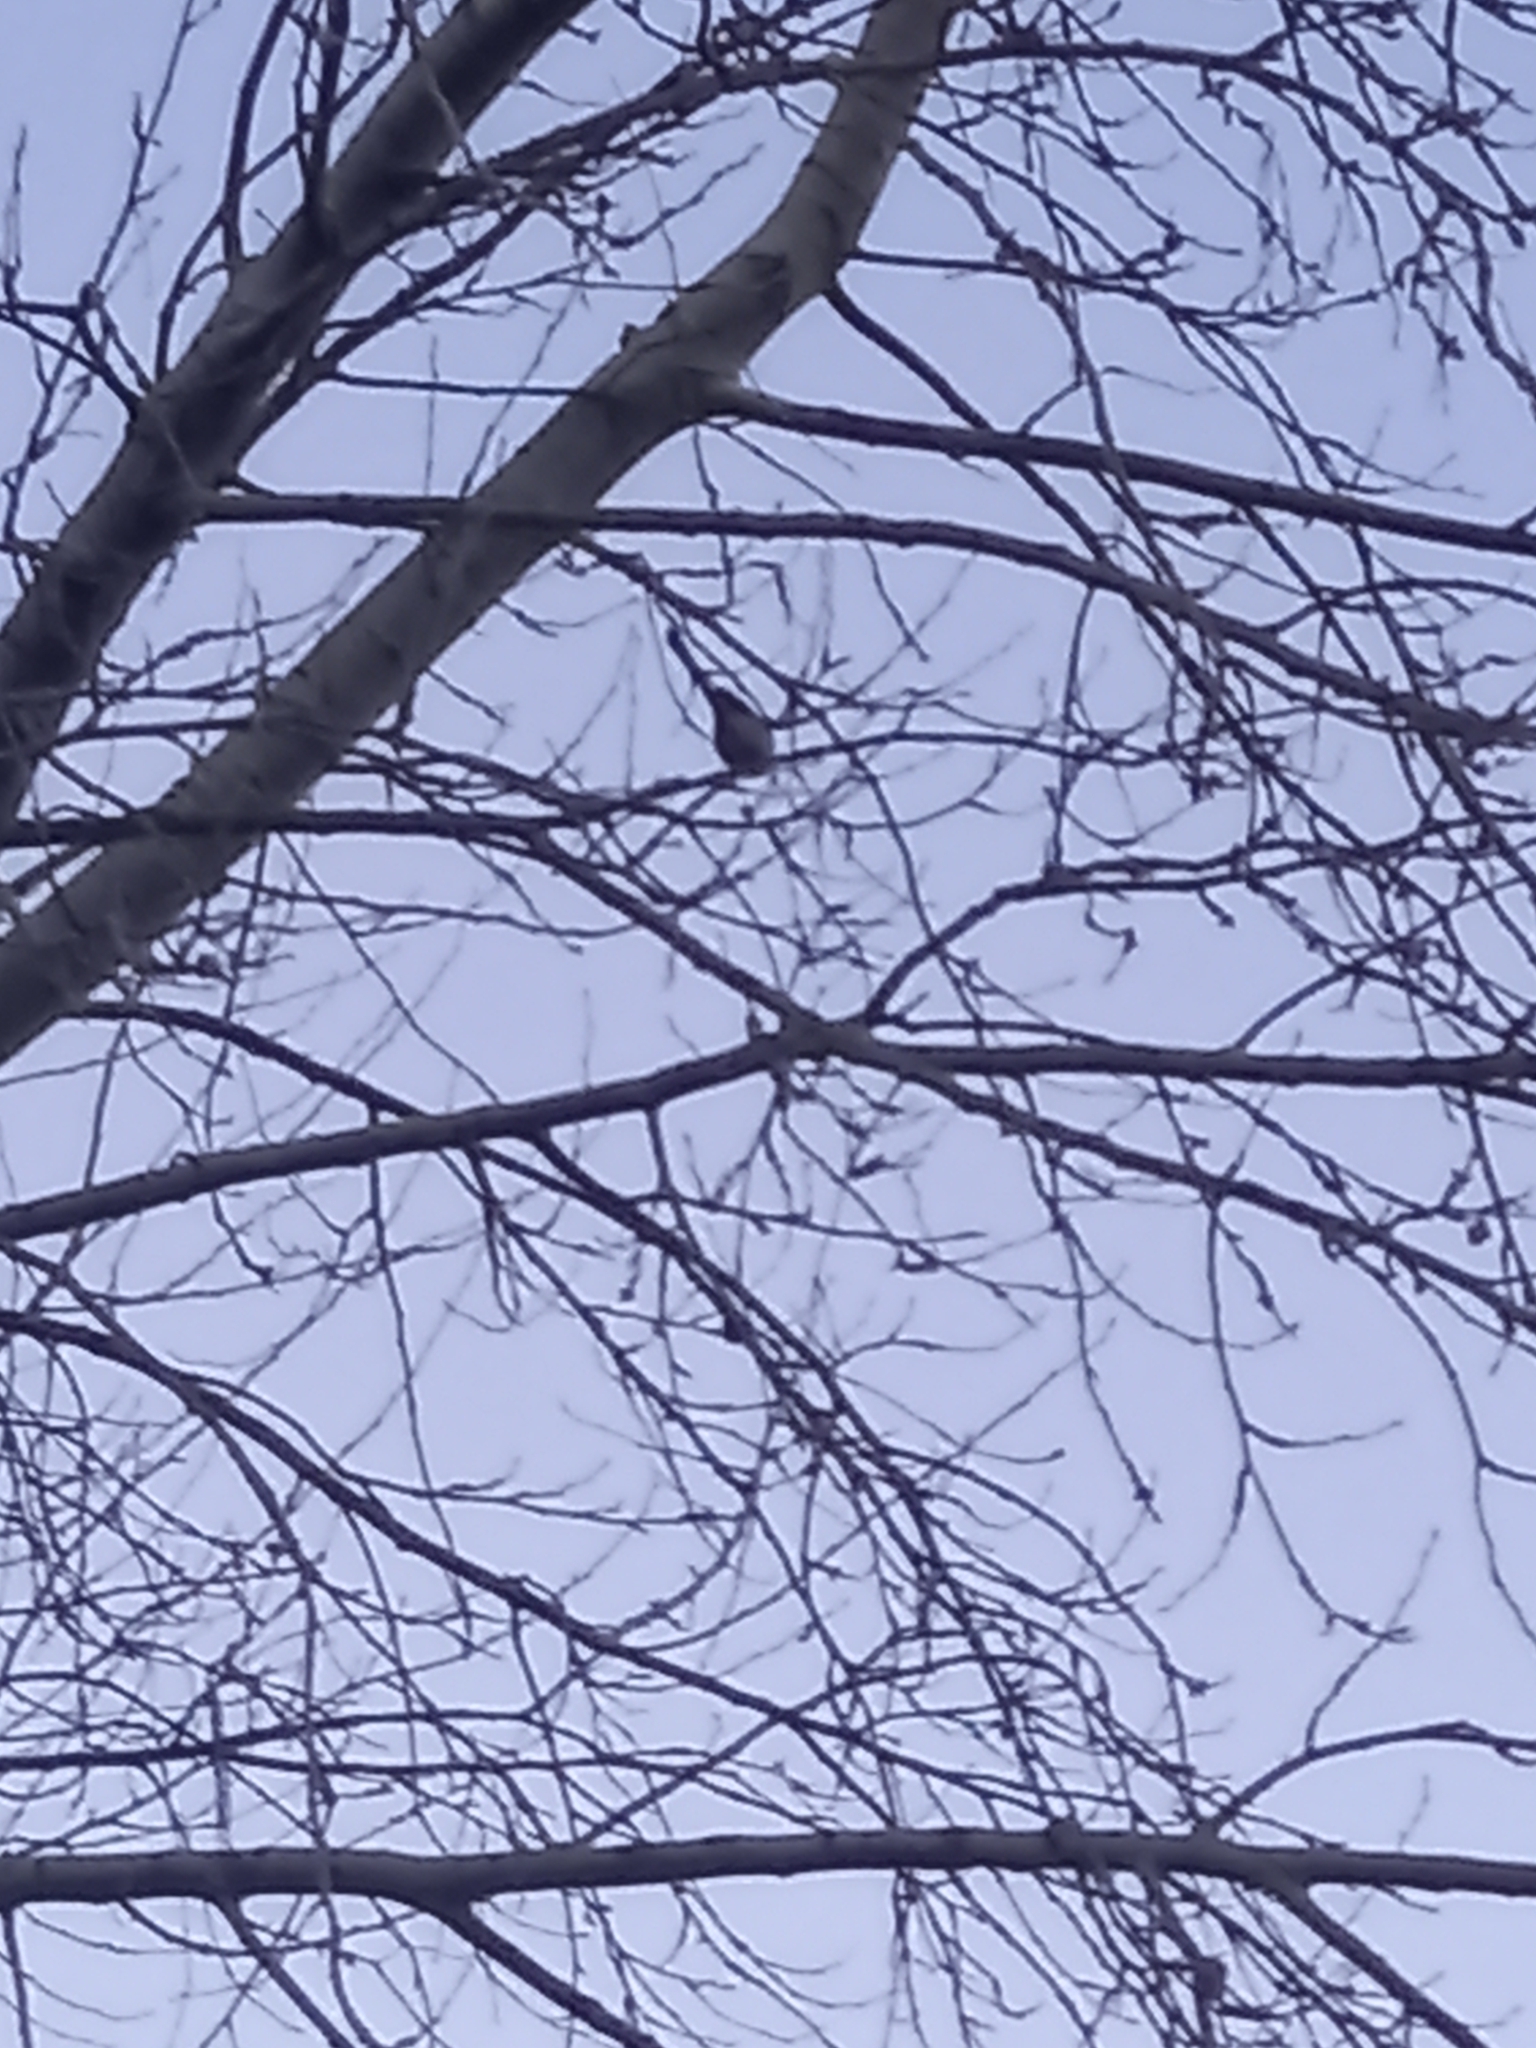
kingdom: Animalia
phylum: Chordata
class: Aves
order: Passeriformes
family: Aegithalidae
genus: Aegithalos
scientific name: Aegithalos caudatus
